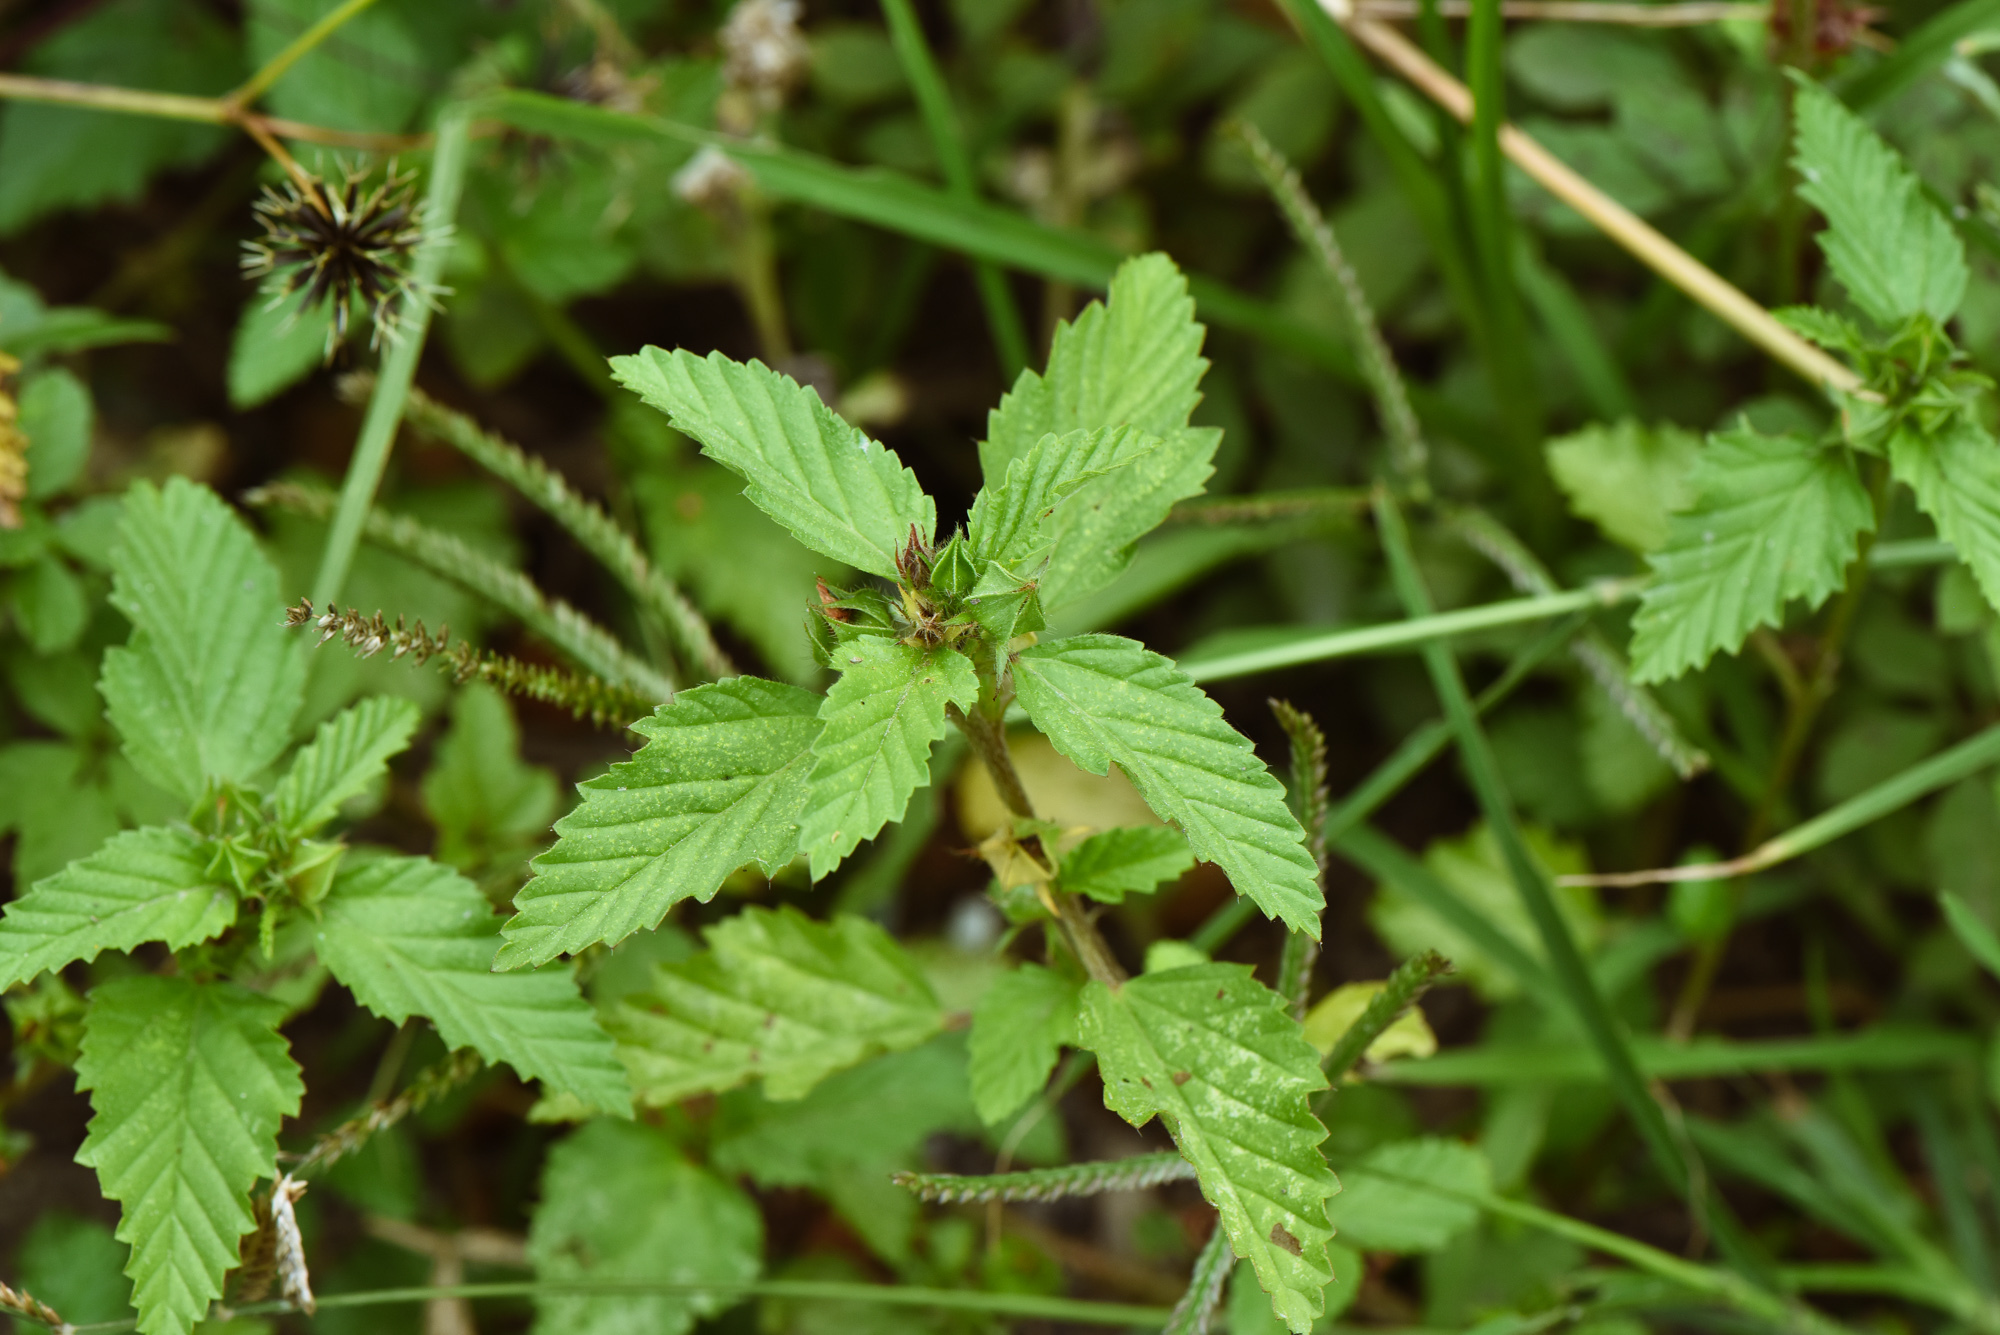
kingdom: Plantae
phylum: Tracheophyta
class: Magnoliopsida
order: Malvales
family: Malvaceae
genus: Malvastrum
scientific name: Malvastrum coromandelianum
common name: Threelobe false mallow
